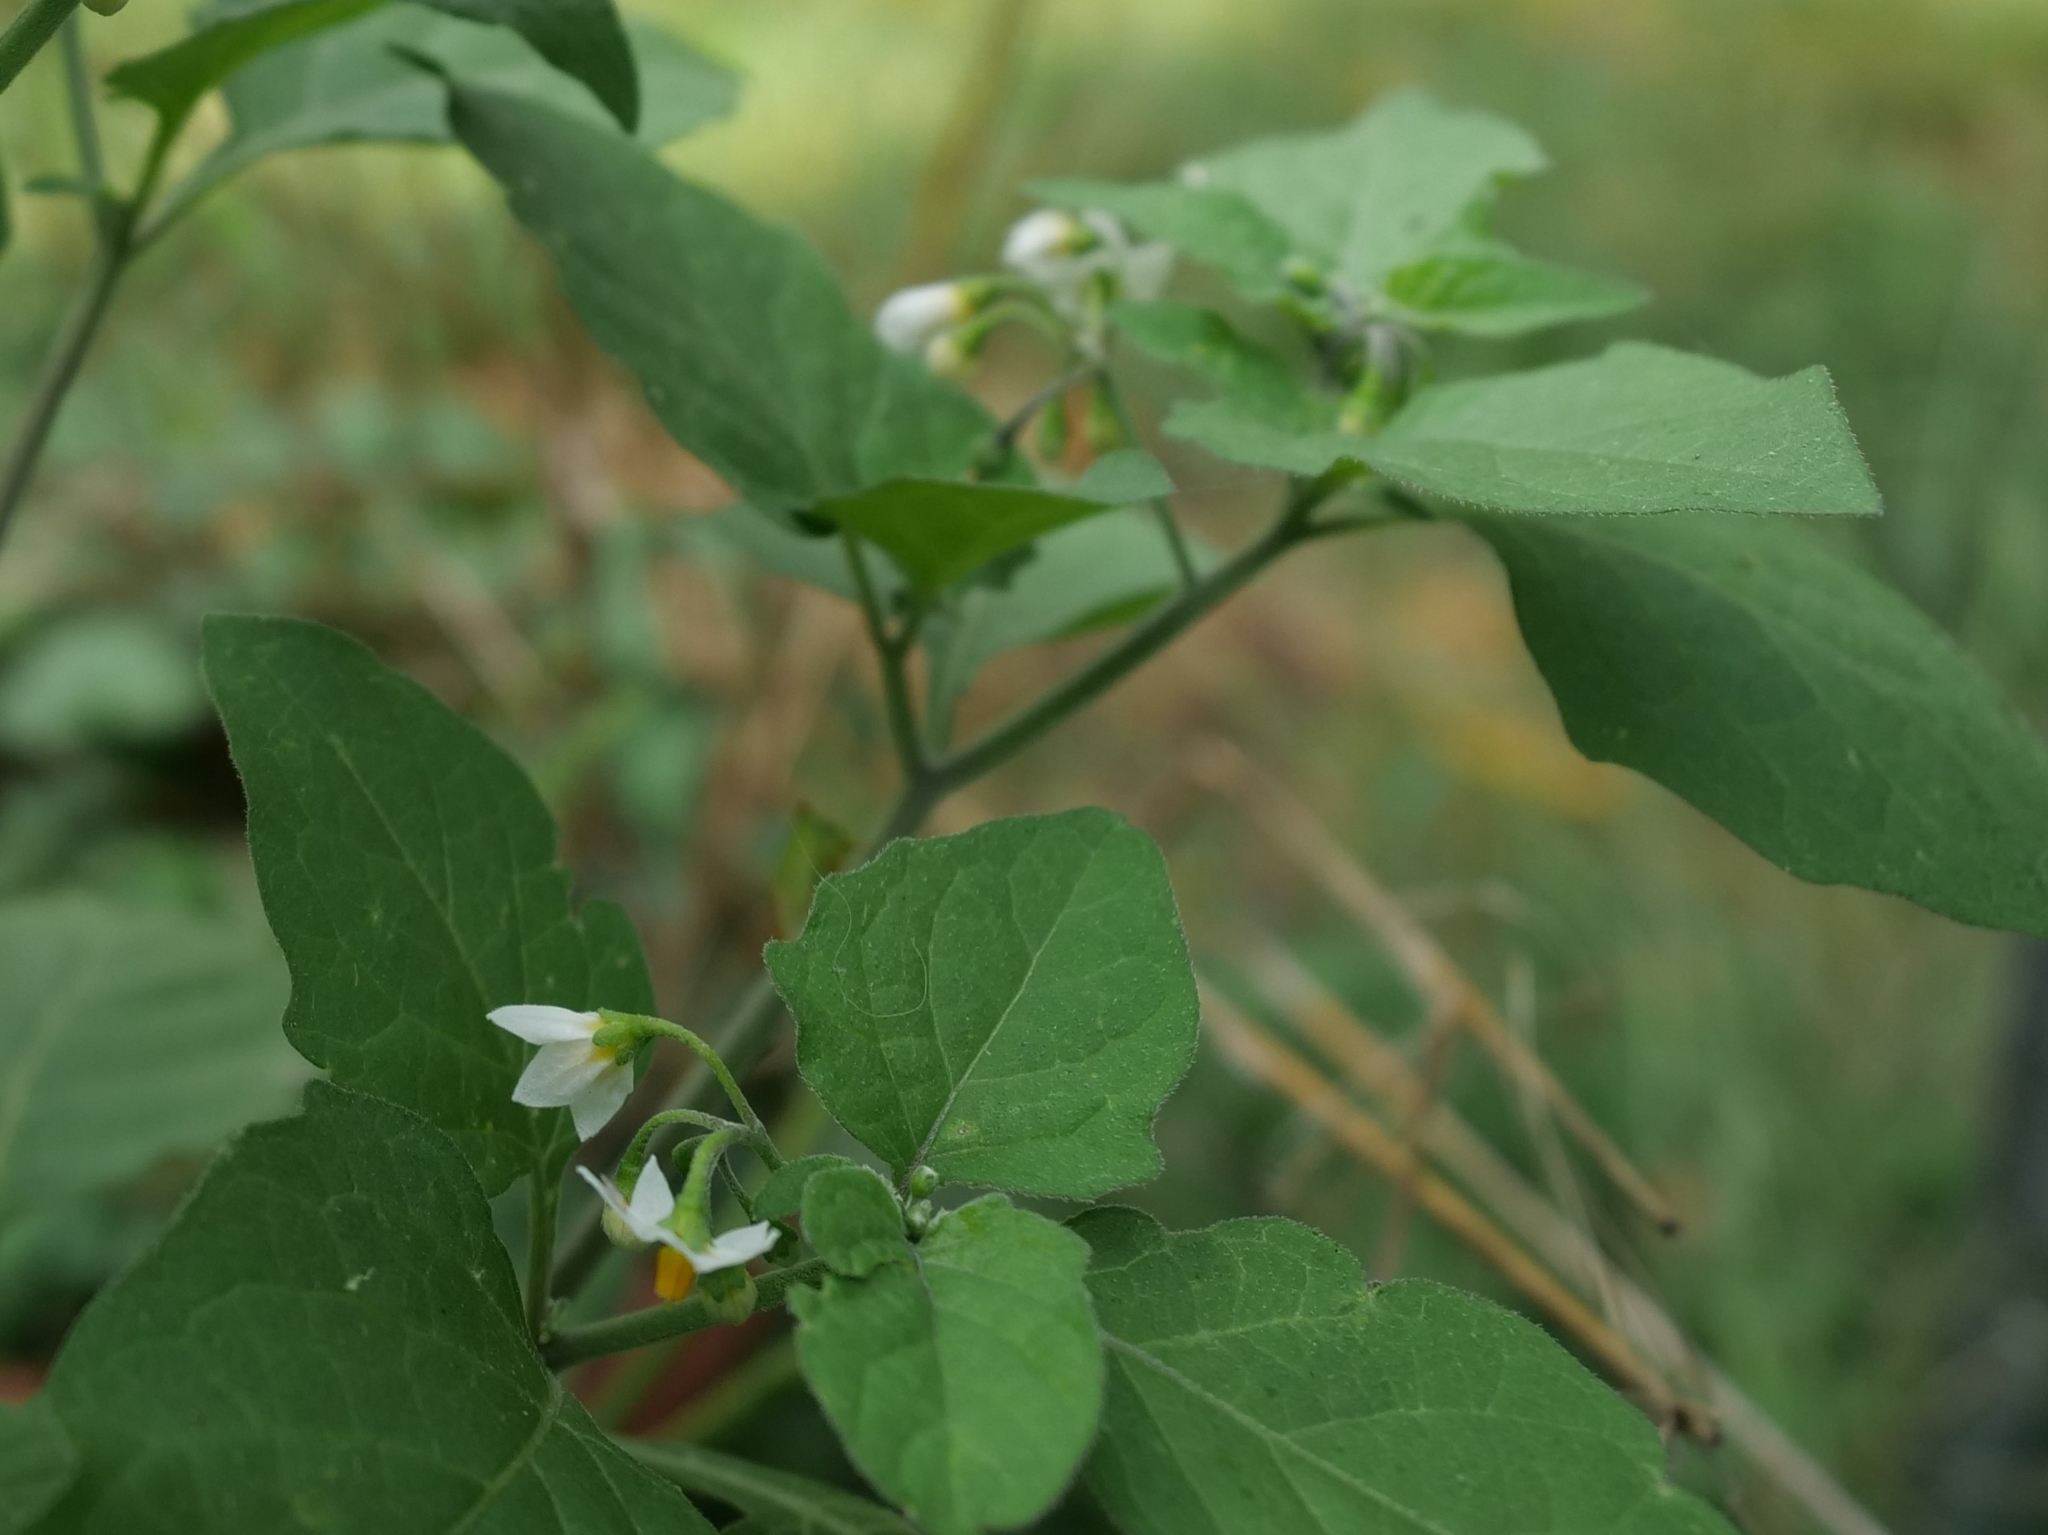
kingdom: Plantae
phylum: Tracheophyta
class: Magnoliopsida
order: Solanales
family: Solanaceae
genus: Solanum
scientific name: Solanum nigrum
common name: Black nightshade
